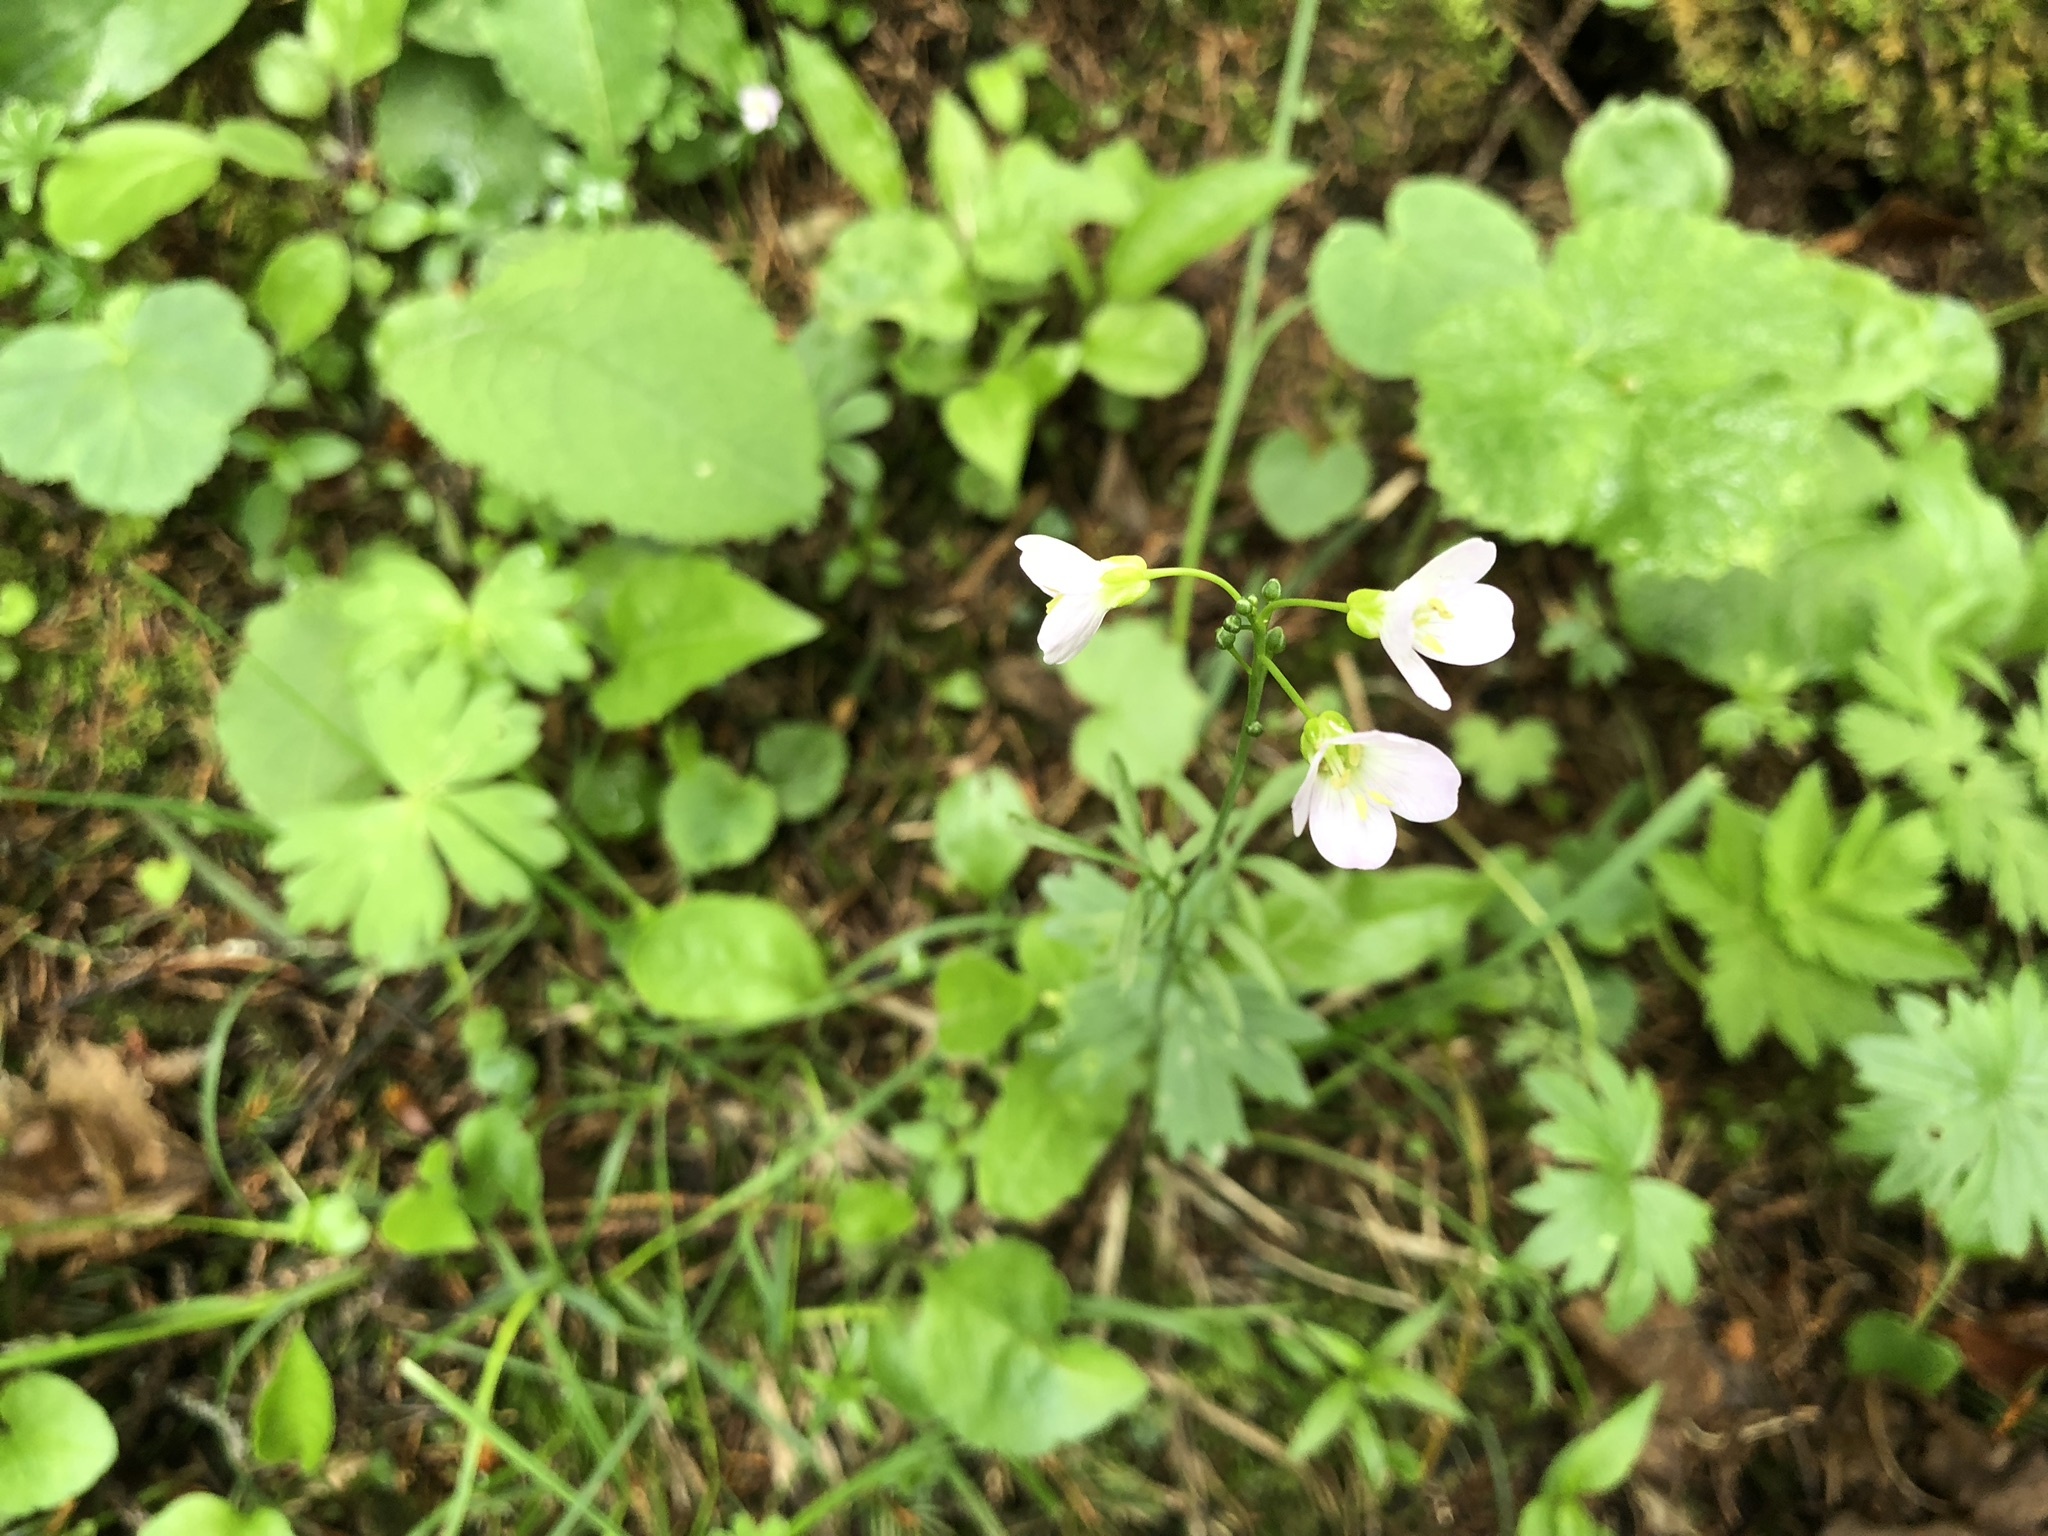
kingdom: Plantae
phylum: Tracheophyta
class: Magnoliopsida
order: Brassicales
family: Brassicaceae
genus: Cardamine
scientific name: Cardamine pratensis
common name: Cuckoo flower
